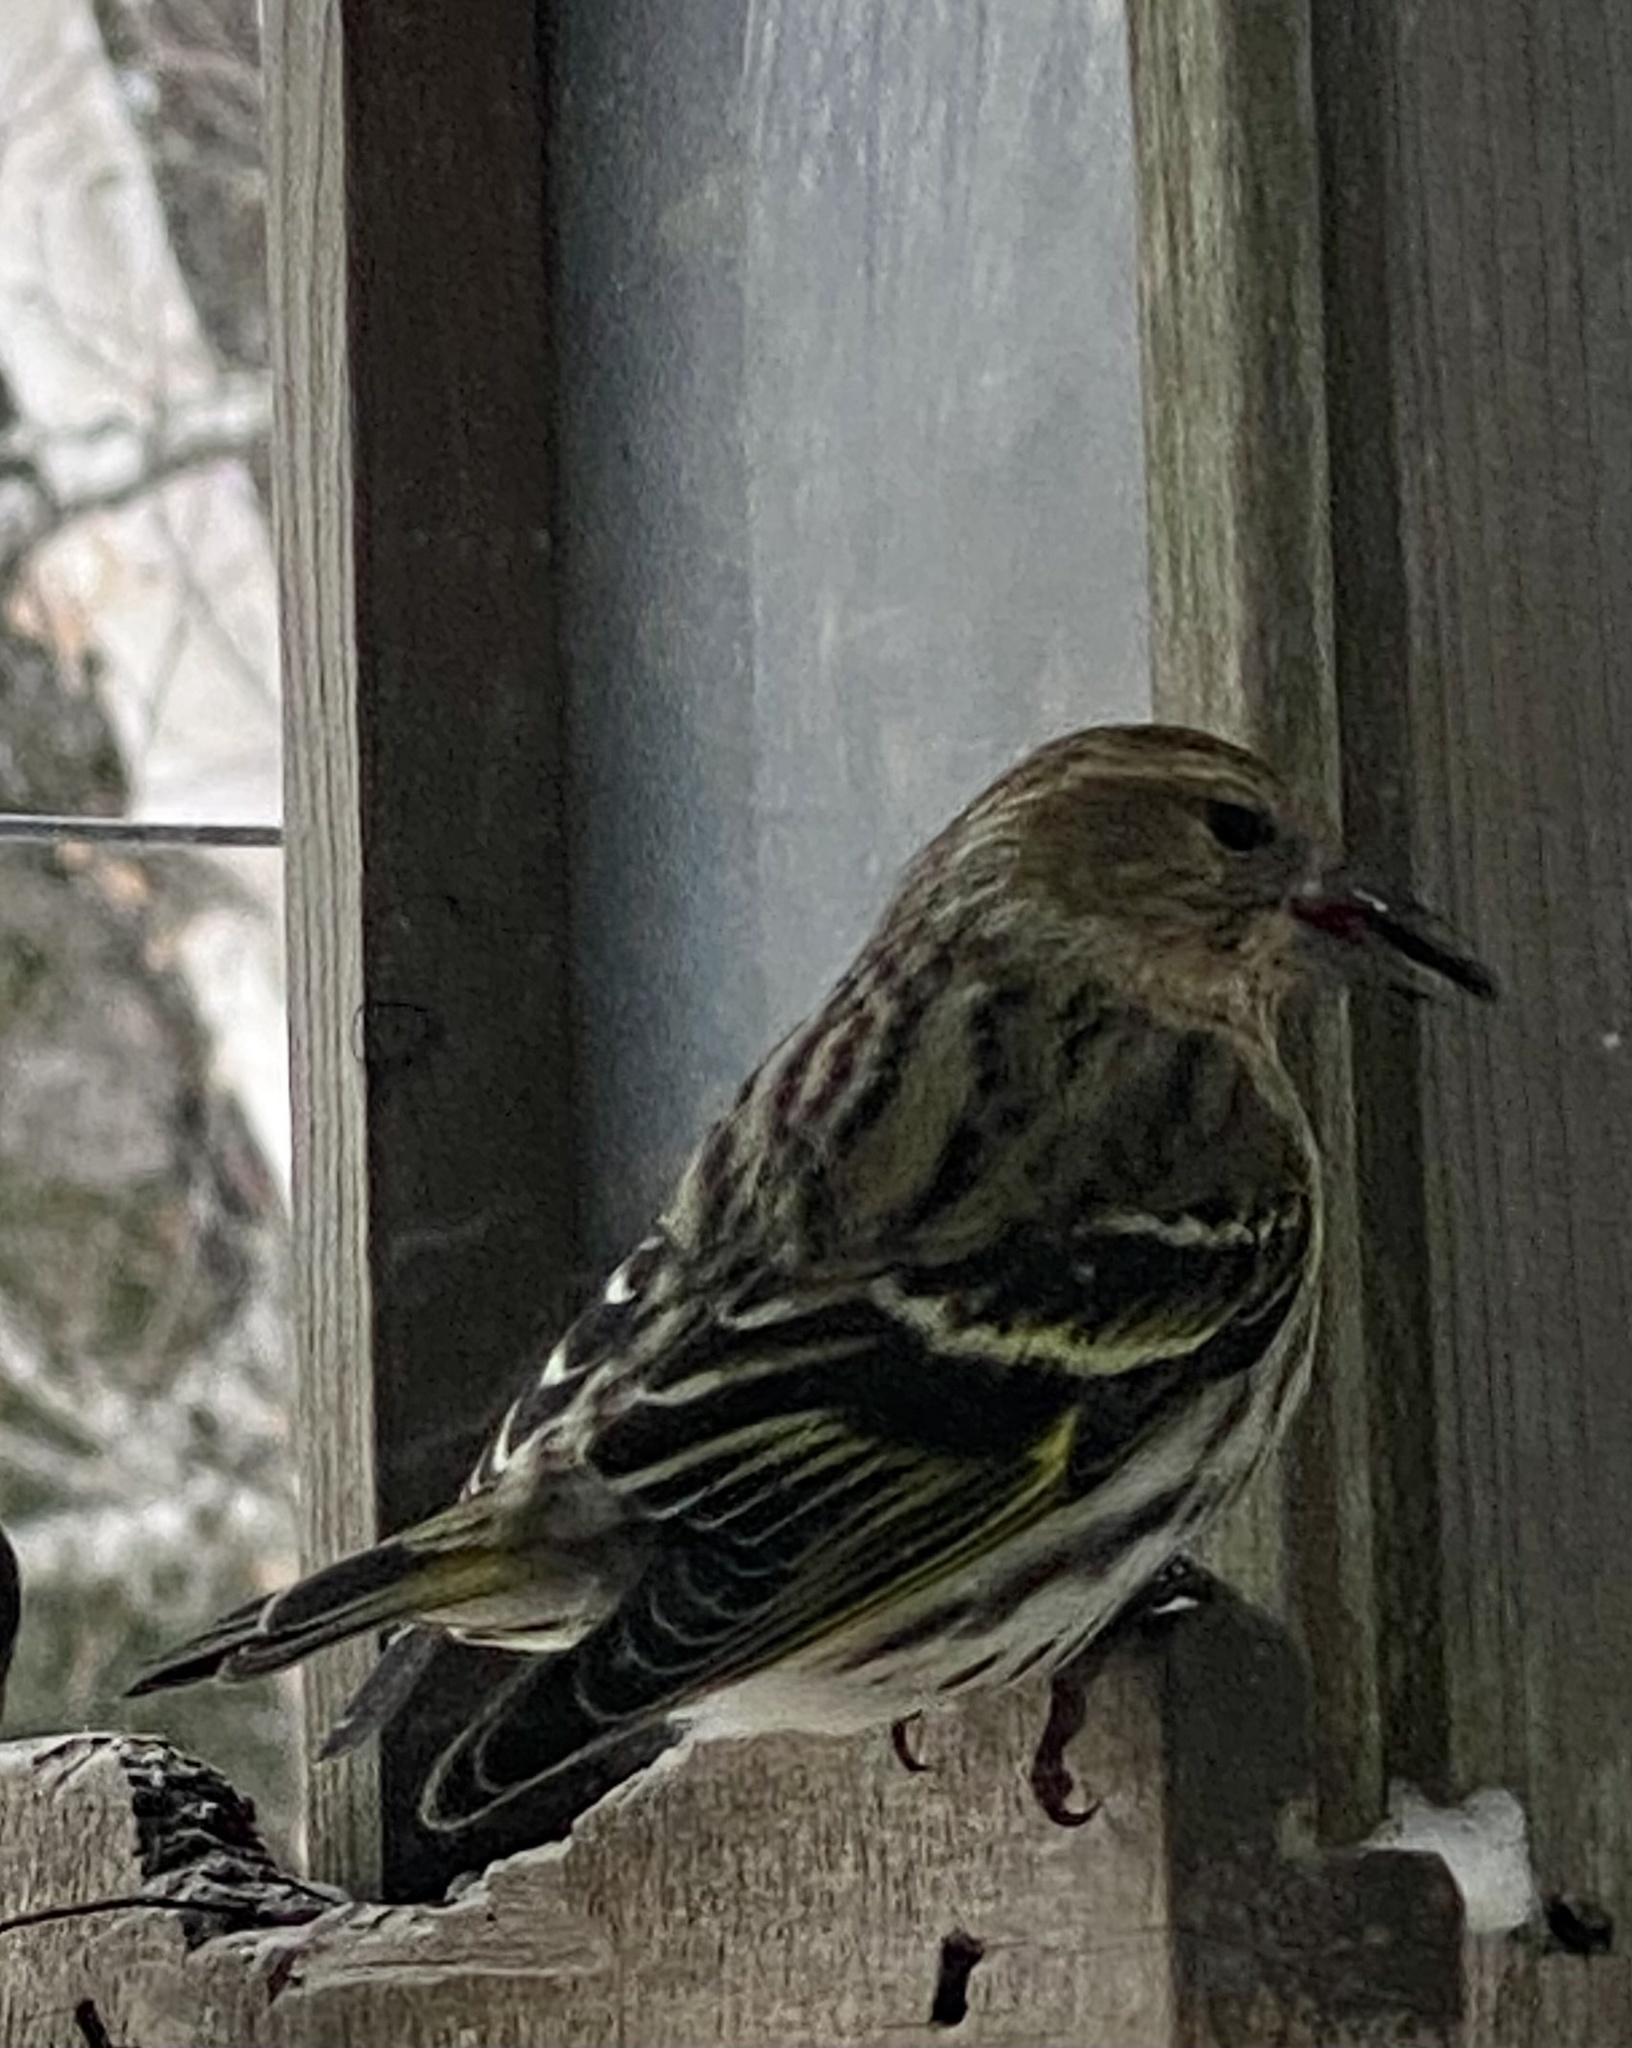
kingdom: Animalia
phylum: Chordata
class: Aves
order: Passeriformes
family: Fringillidae
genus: Spinus
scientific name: Spinus pinus
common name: Pine siskin
